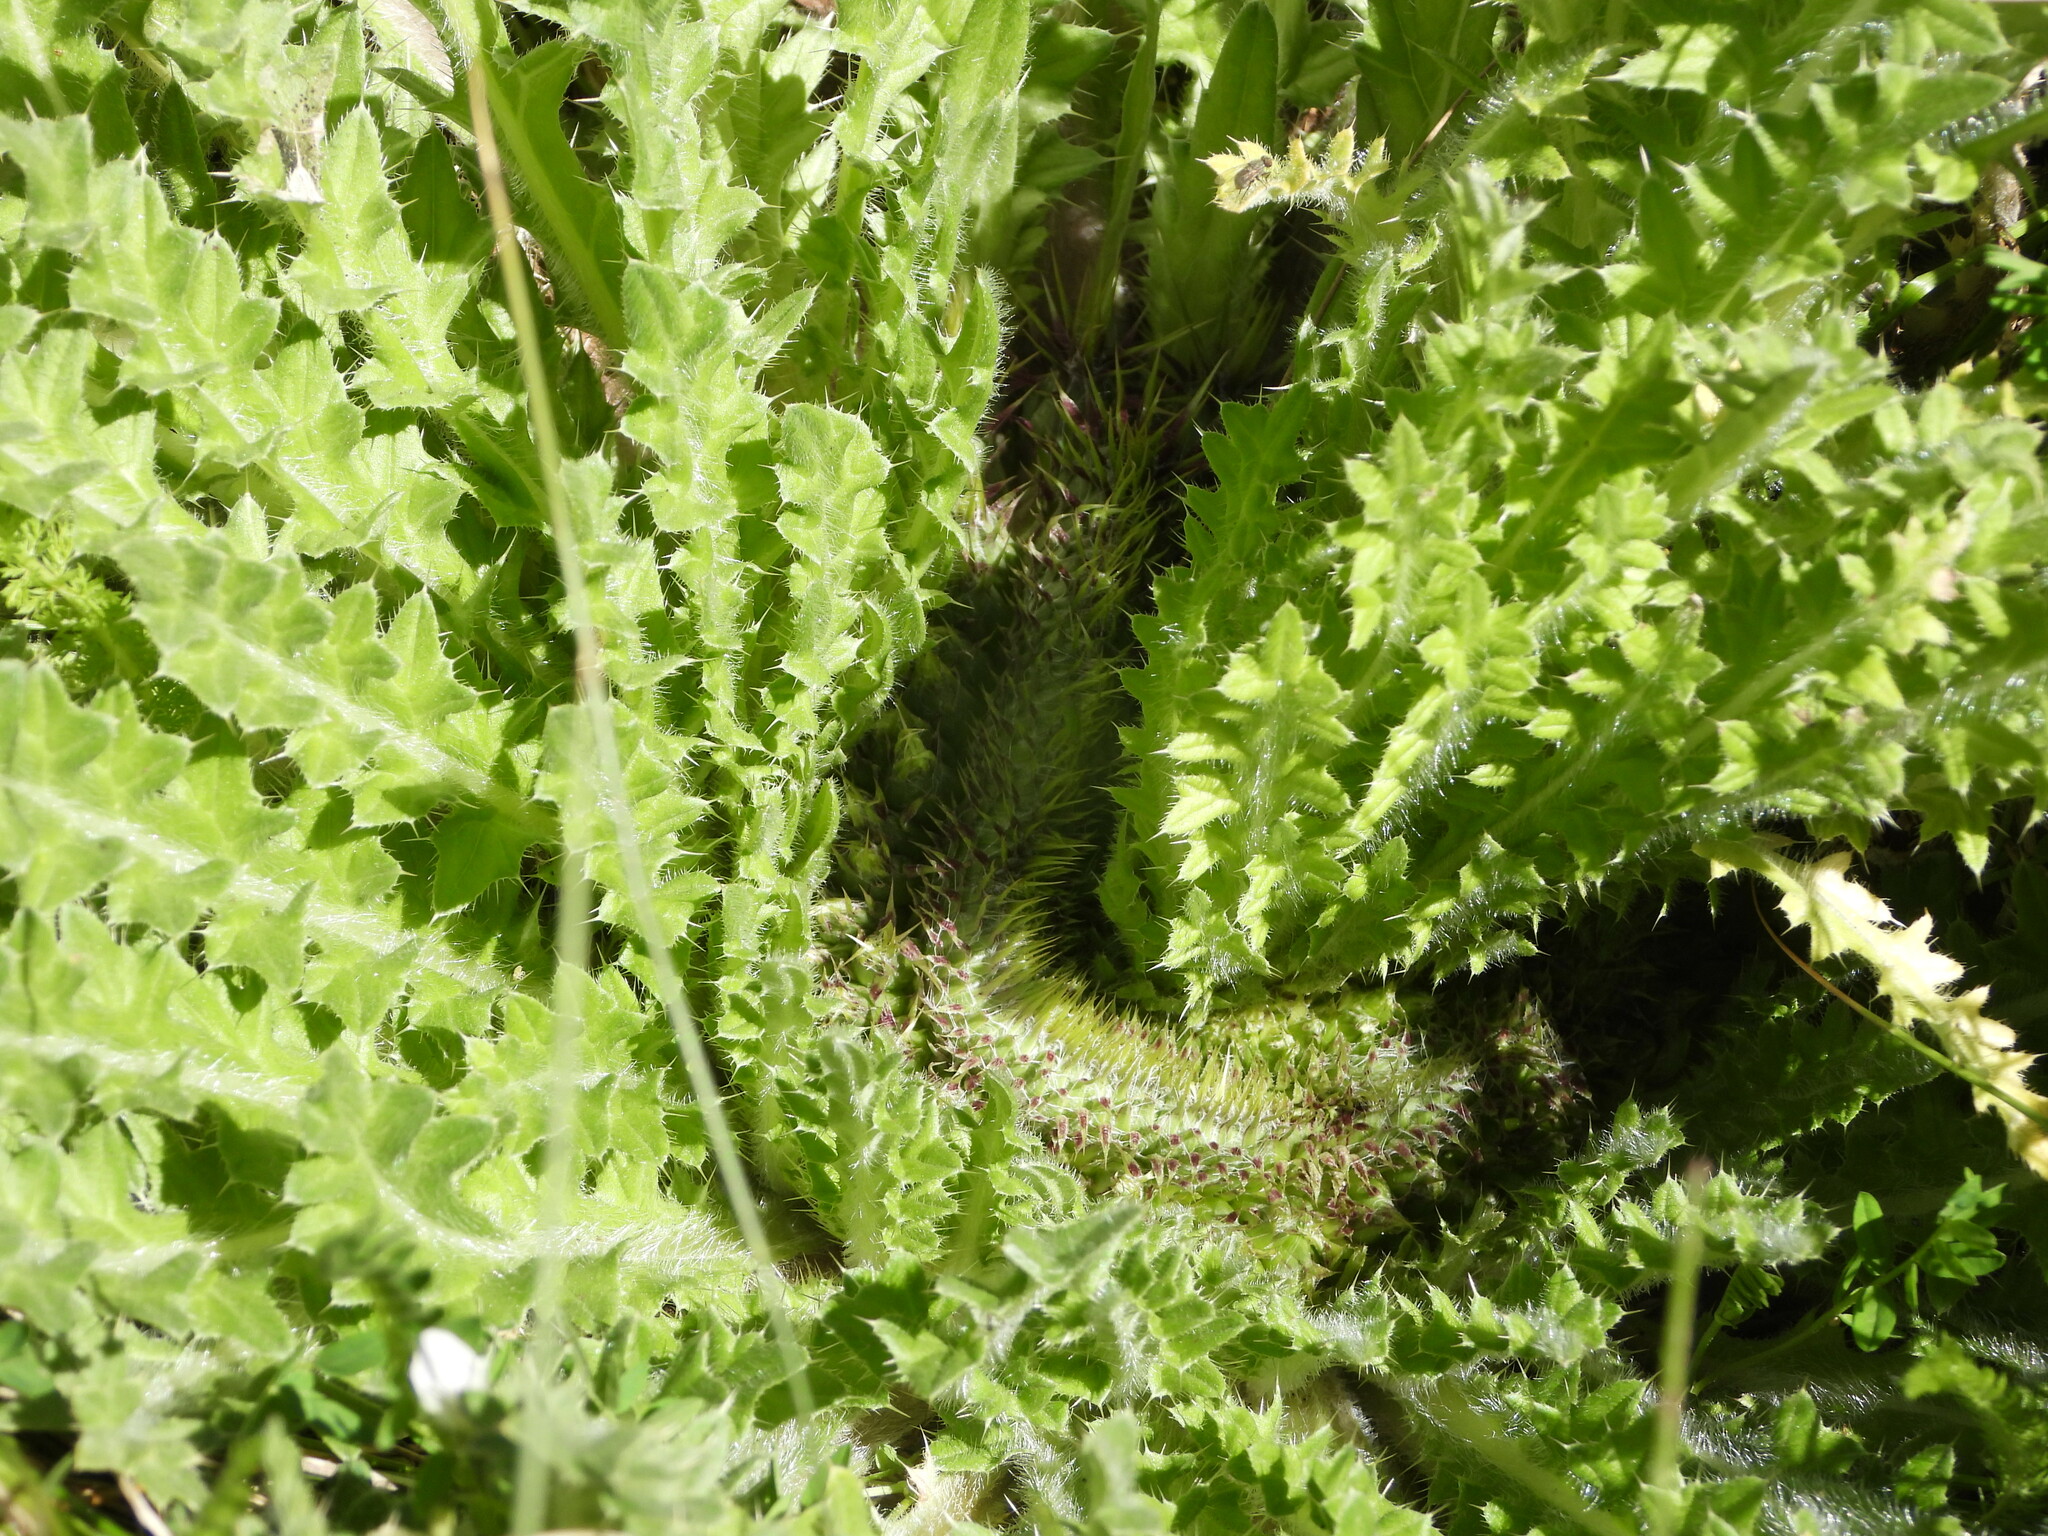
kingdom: Plantae
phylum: Tracheophyta
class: Magnoliopsida
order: Asterales
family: Asteraceae
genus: Cirsium
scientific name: Cirsium tioganum
